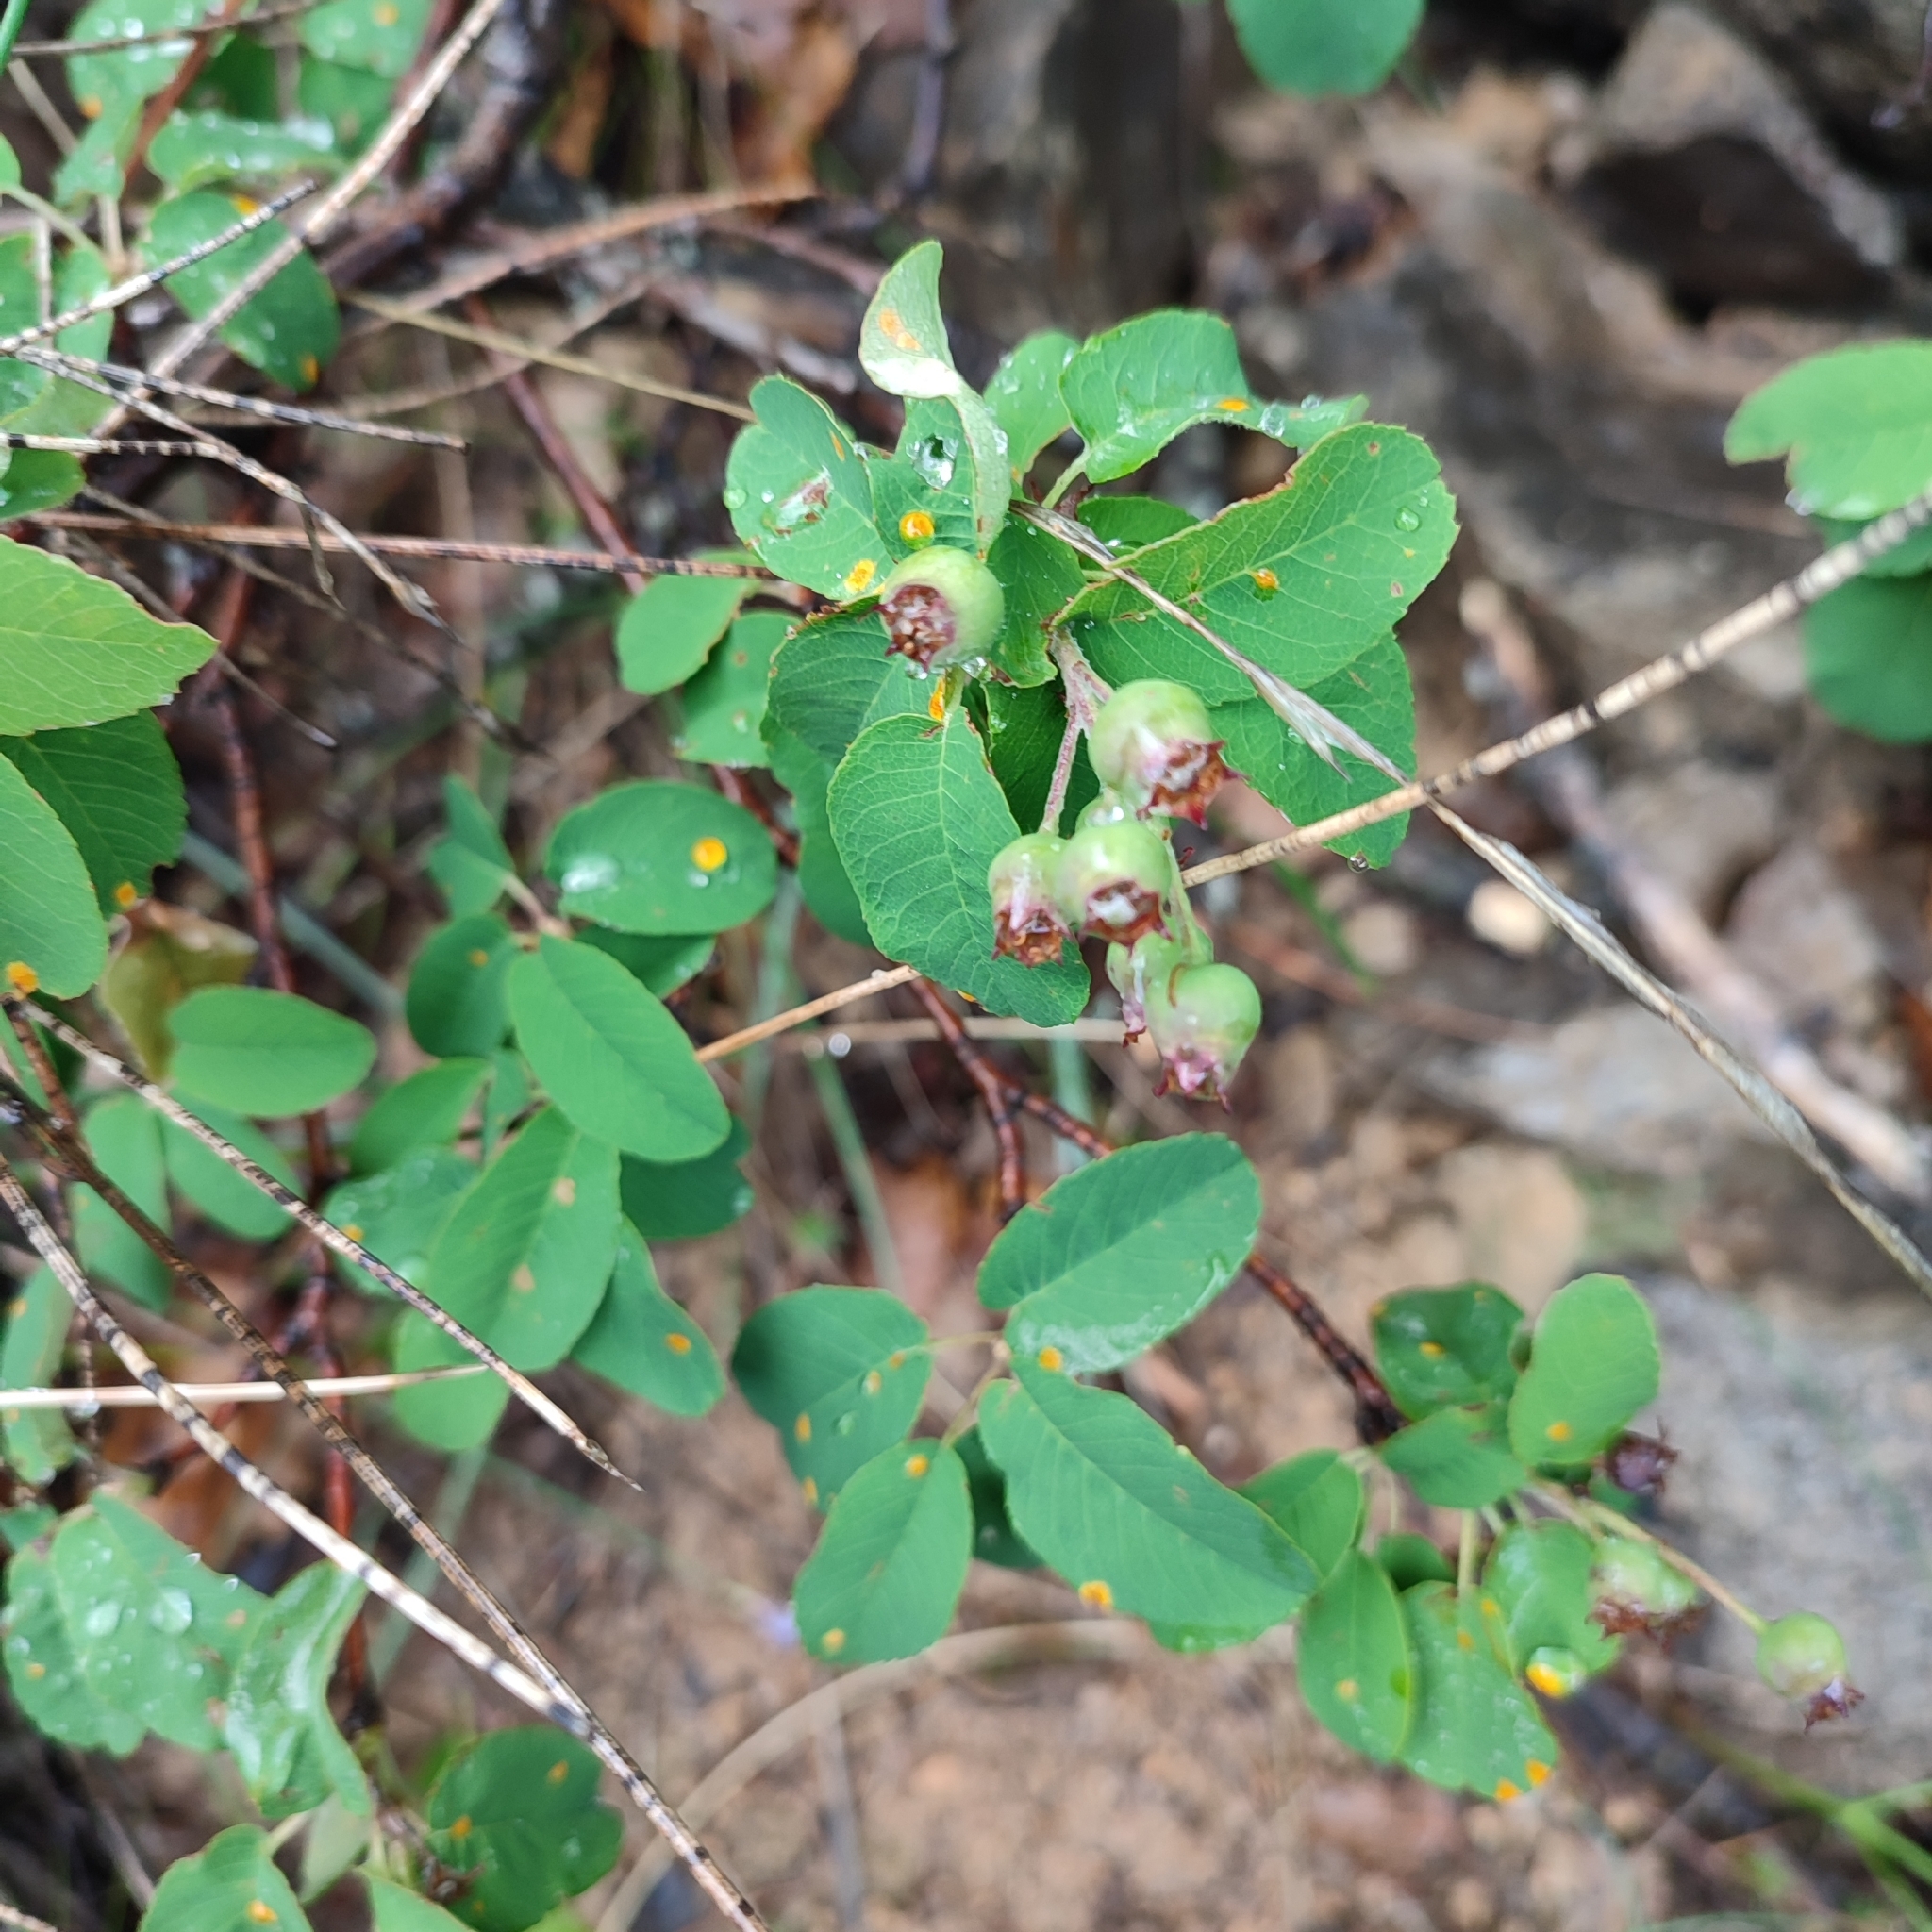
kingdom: Plantae
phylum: Tracheophyta
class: Magnoliopsida
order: Rosales
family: Rosaceae
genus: Amelanchier
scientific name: Amelanchier ovalis
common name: Serviceberry
